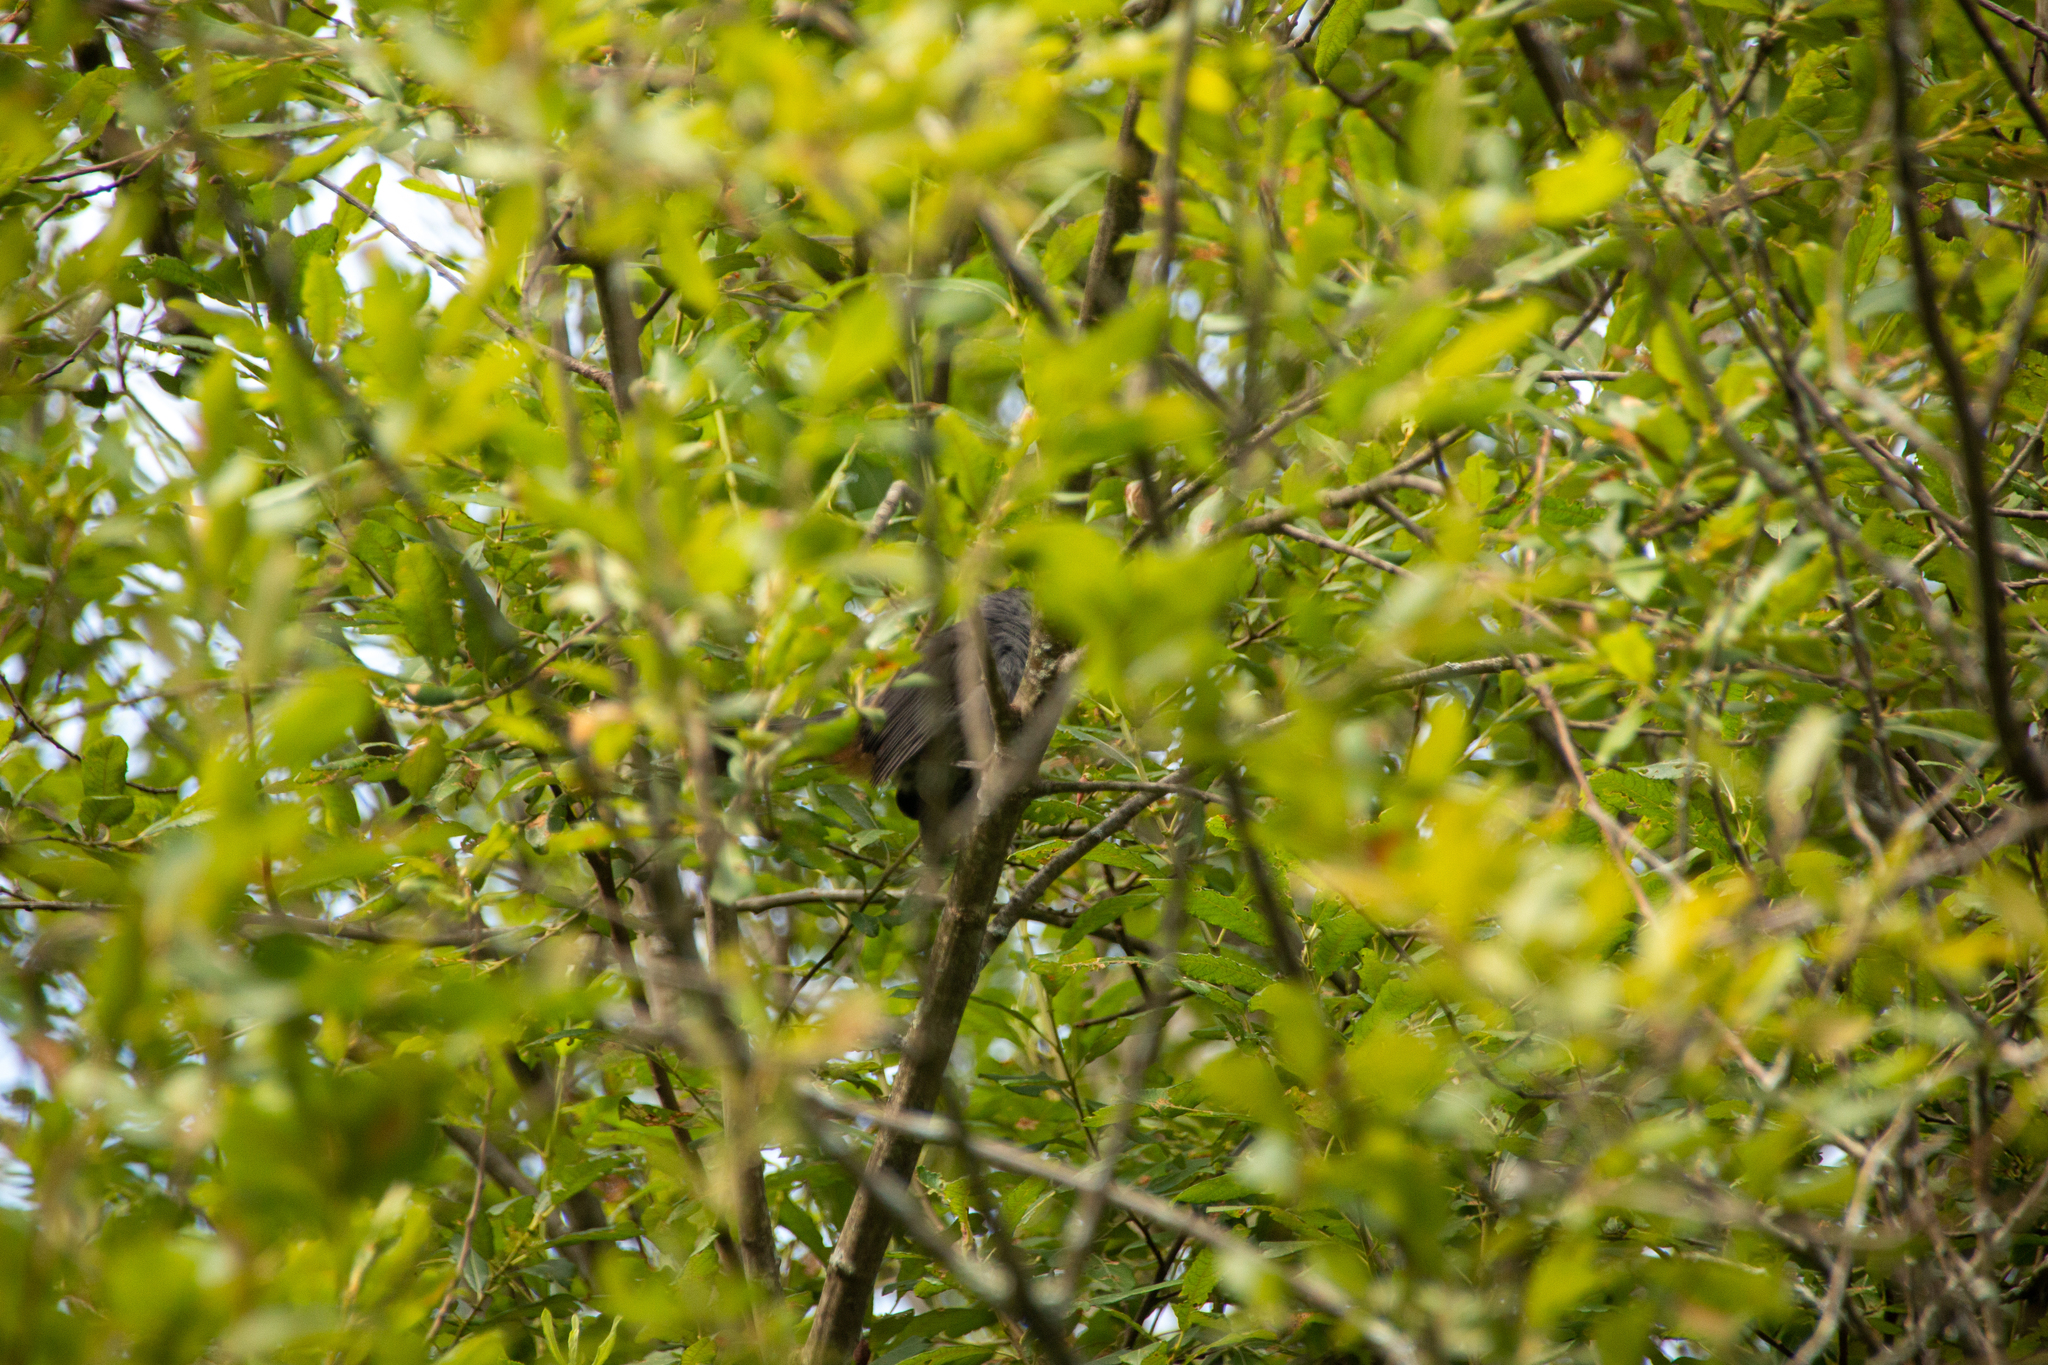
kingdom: Animalia
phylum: Chordata
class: Aves
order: Passeriformes
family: Mimidae
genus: Dumetella
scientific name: Dumetella carolinensis
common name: Gray catbird
